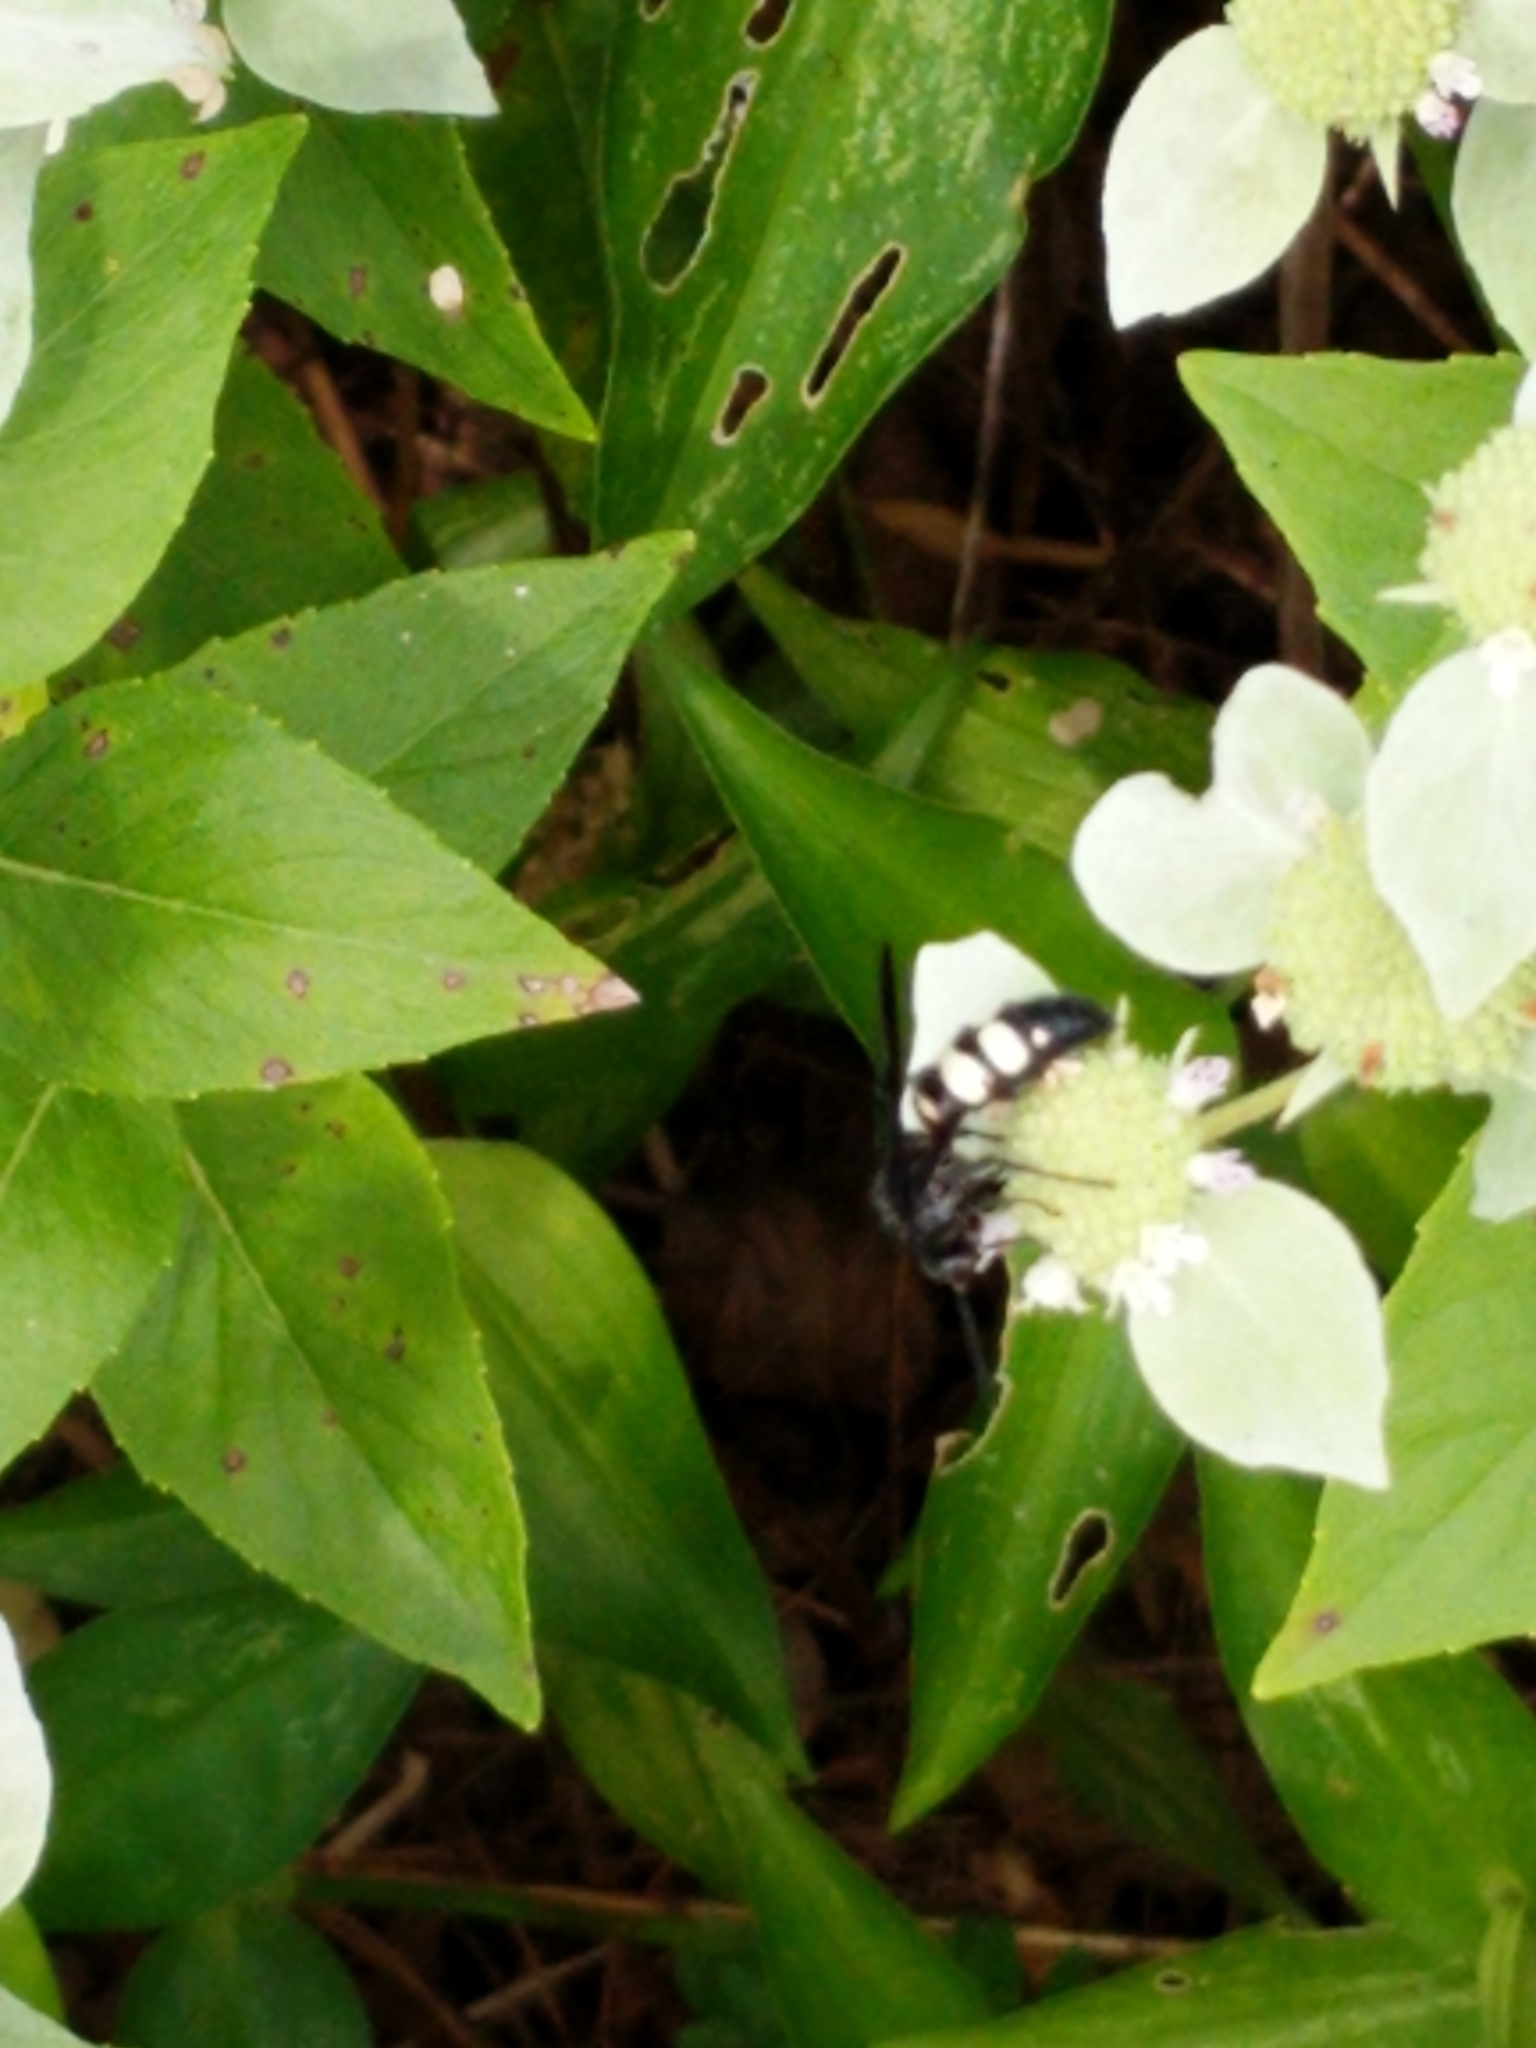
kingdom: Animalia
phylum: Arthropoda
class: Insecta
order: Hymenoptera
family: Scoliidae
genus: Scolia
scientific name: Scolia bicincta
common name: Double-banded scoliid wasp
